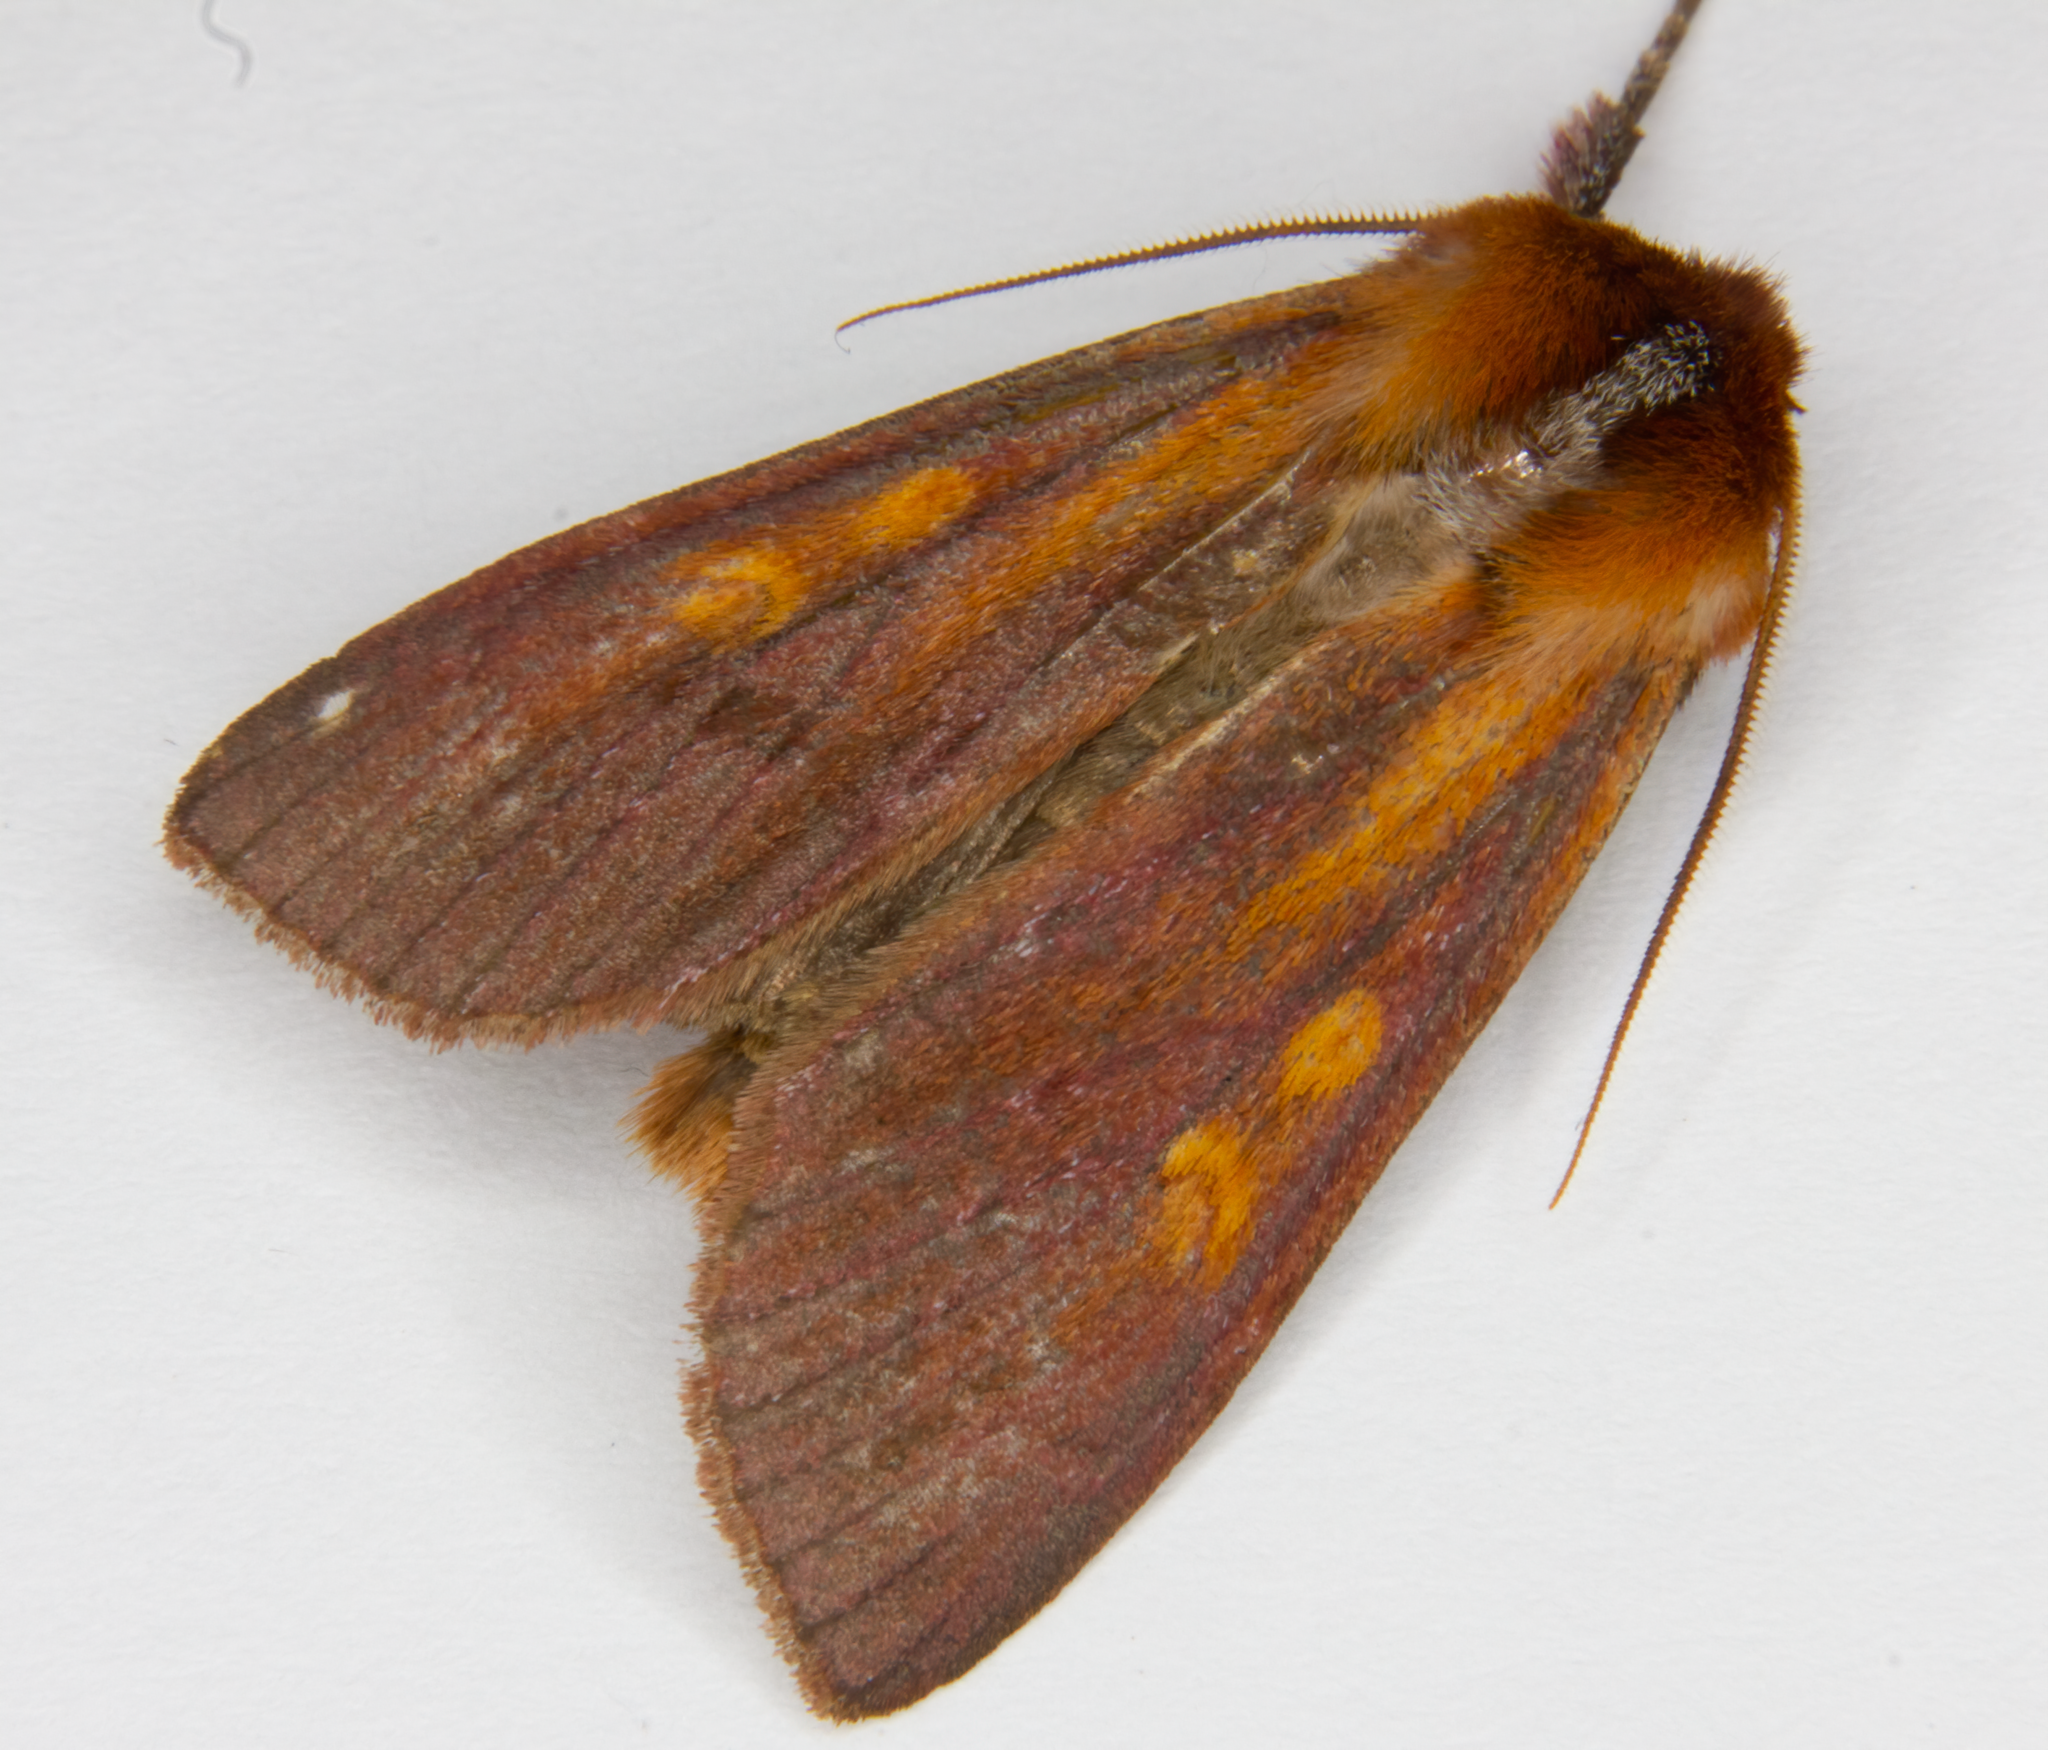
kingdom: Animalia
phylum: Arthropoda
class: Insecta
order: Lepidoptera
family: Noctuidae
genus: Ichneutica
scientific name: Ichneutica
